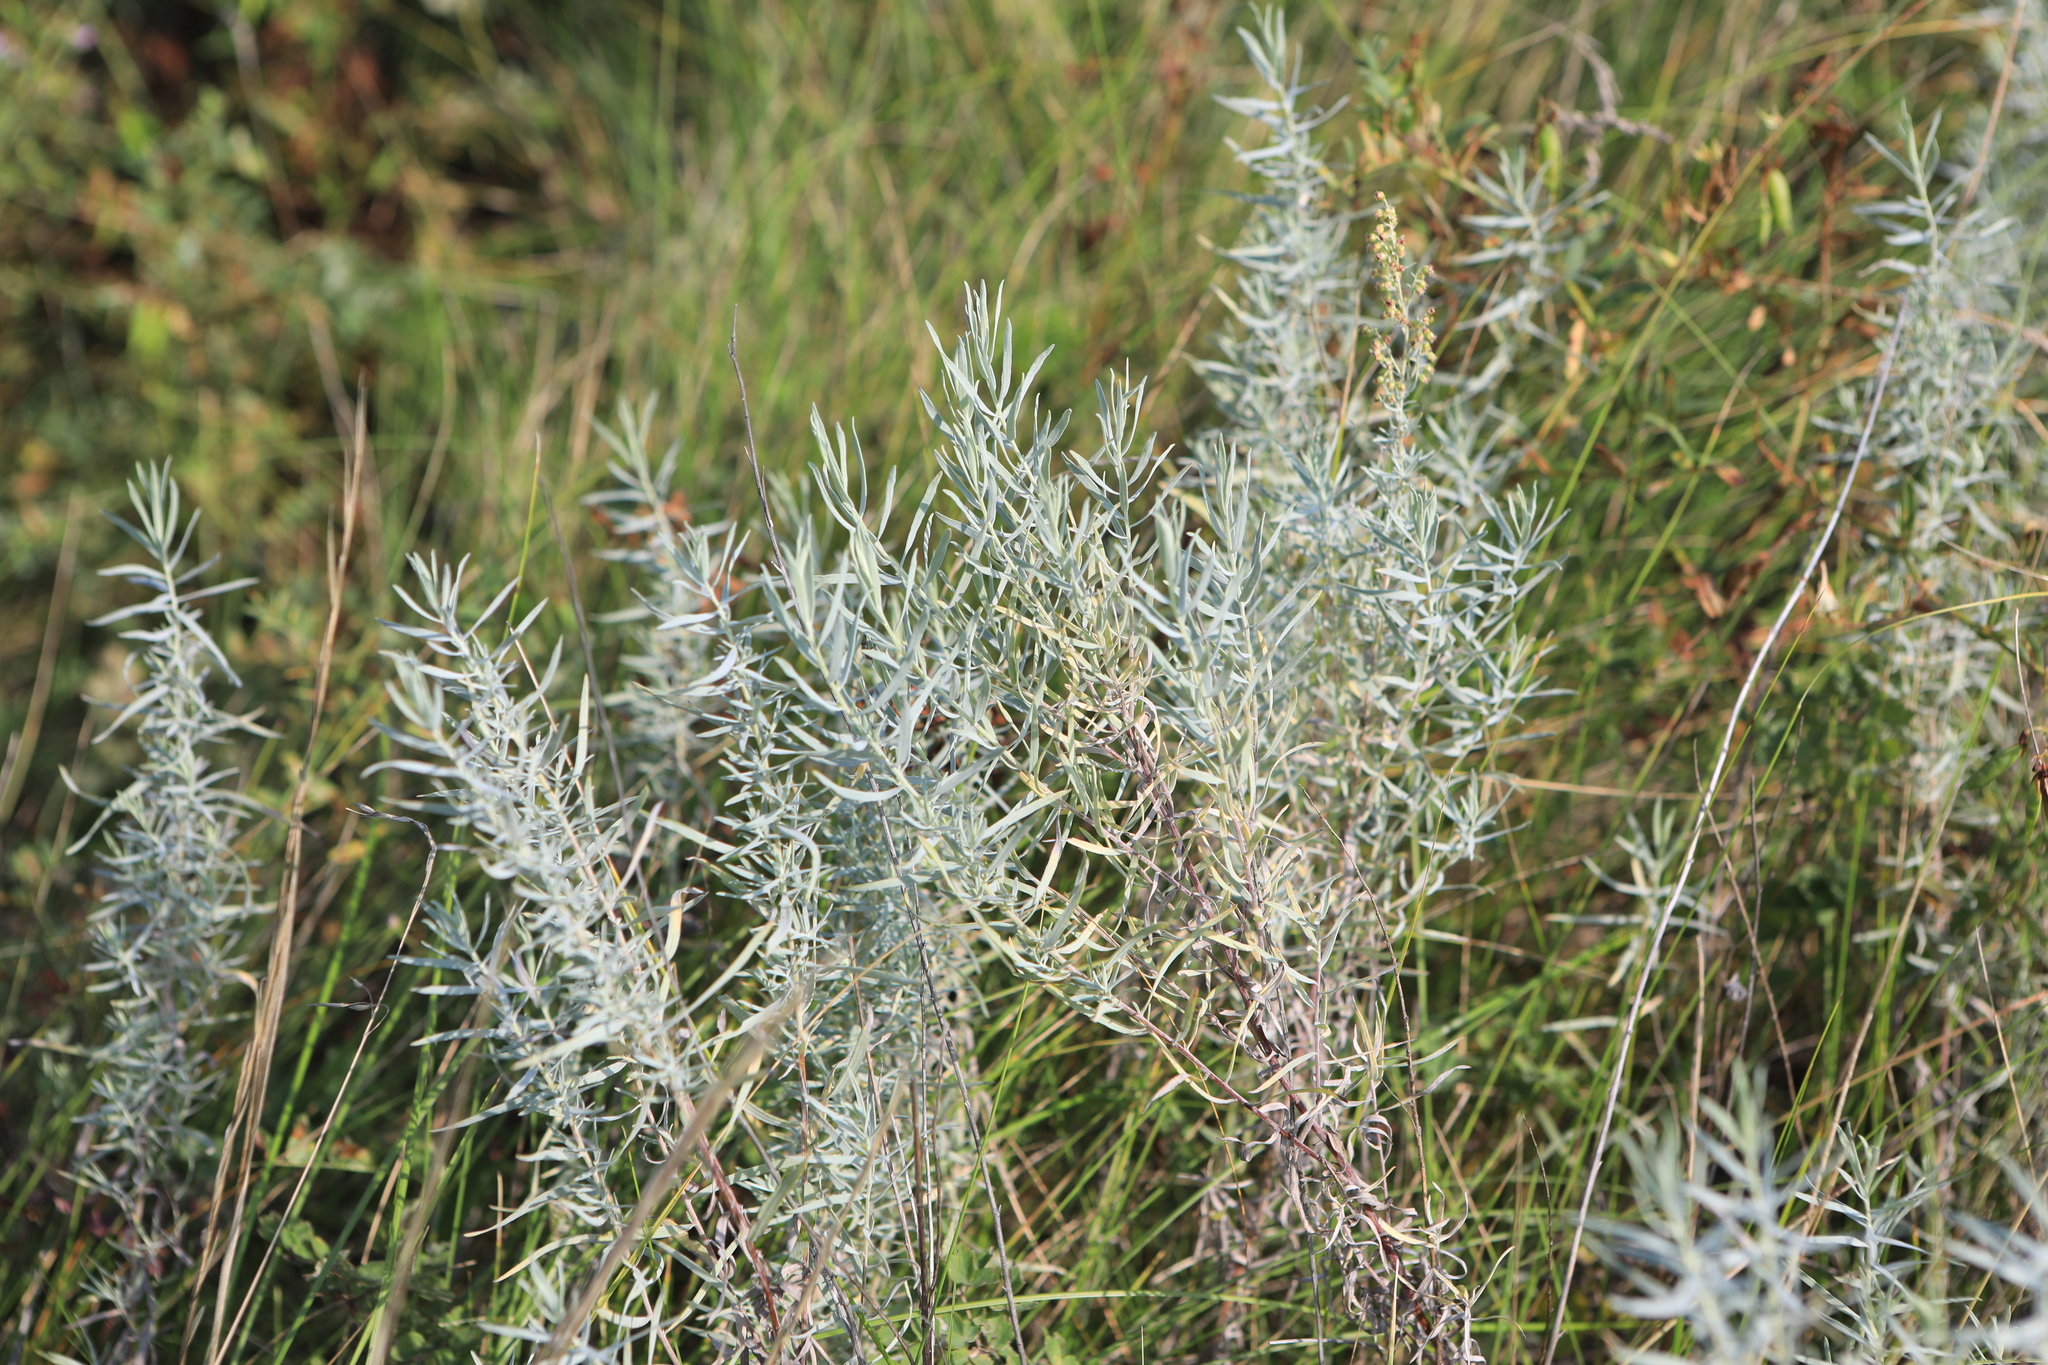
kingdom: Plantae
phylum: Tracheophyta
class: Magnoliopsida
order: Asterales
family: Asteraceae
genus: Artemisia
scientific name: Artemisia glauca
